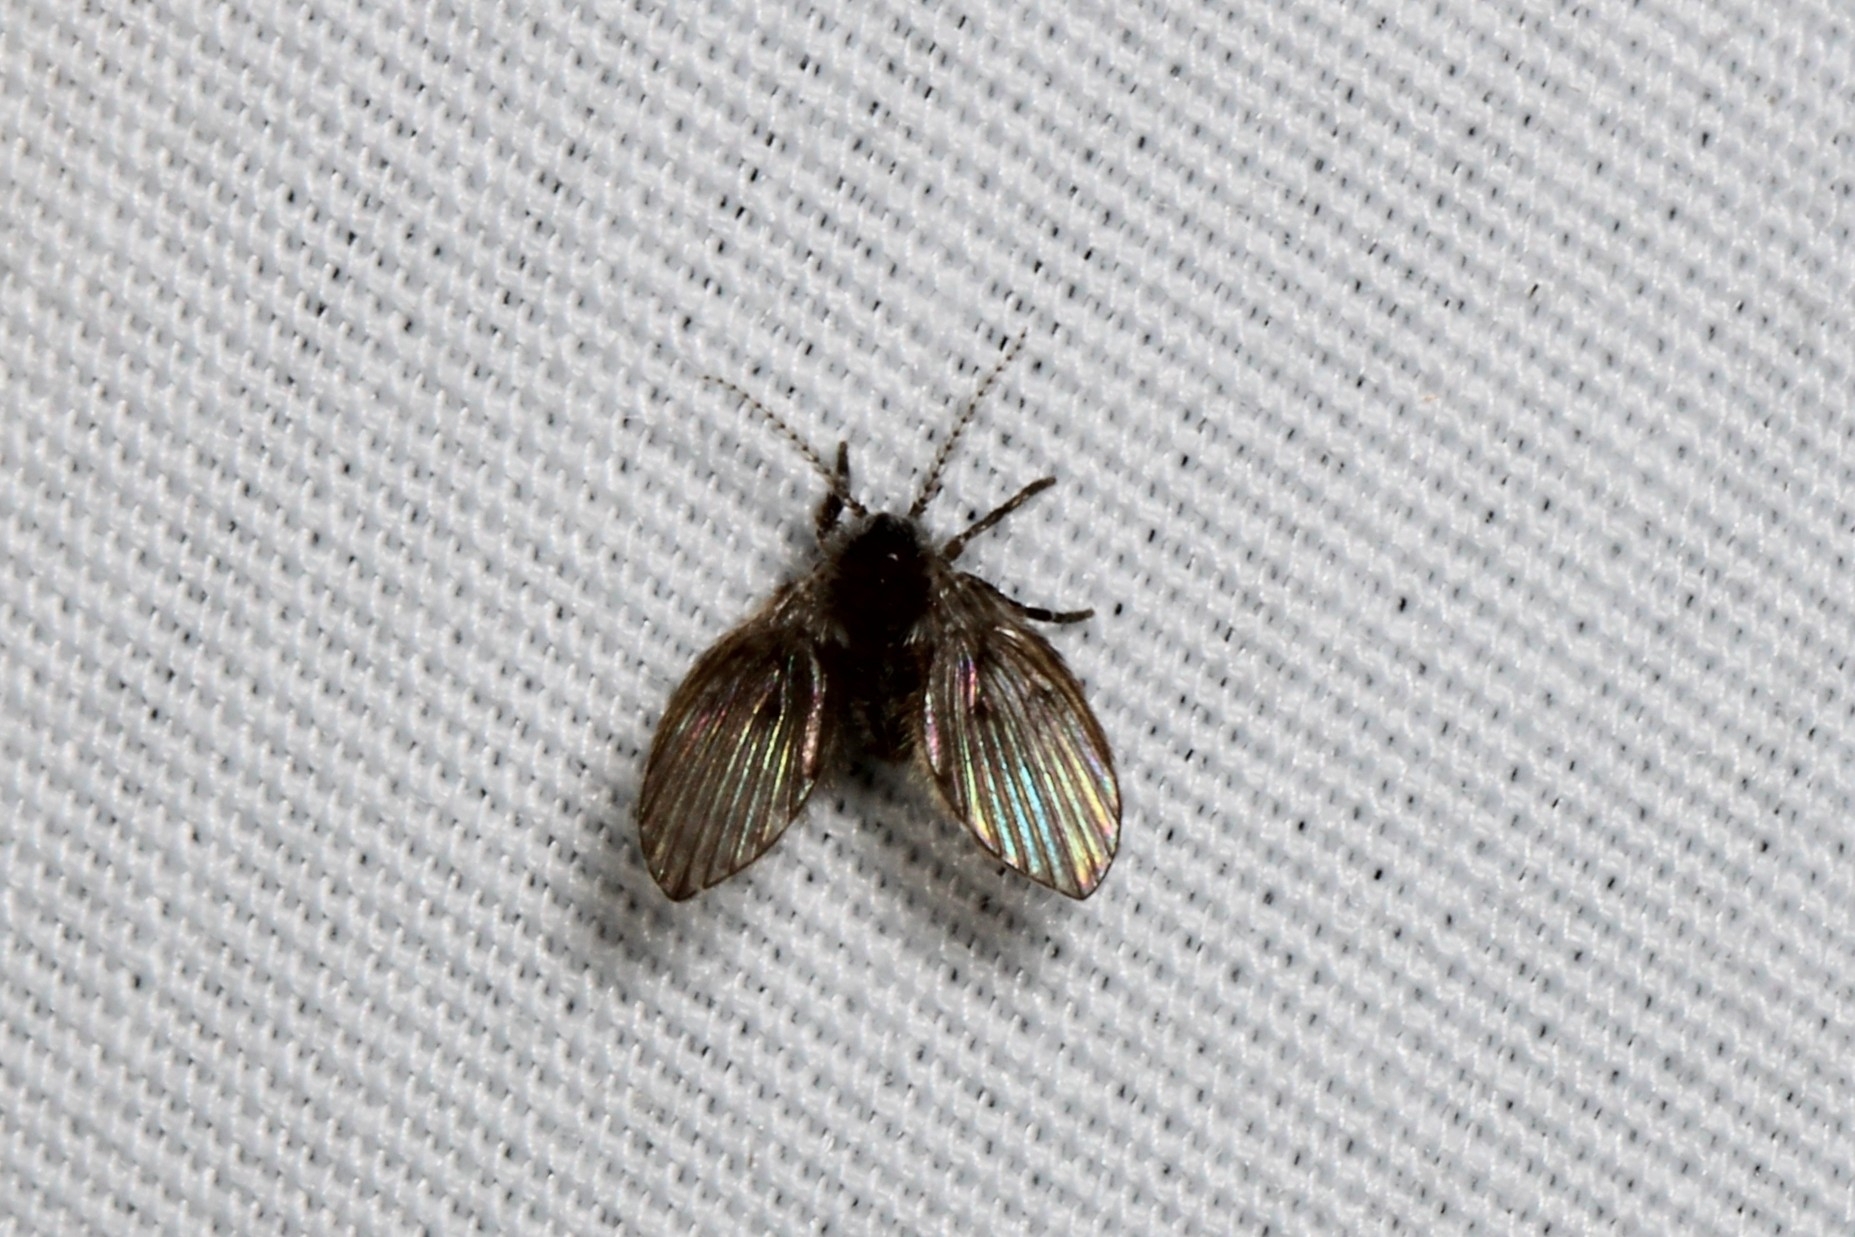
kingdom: Animalia
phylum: Arthropoda
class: Insecta
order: Diptera
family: Psychodidae
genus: Clogmia
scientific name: Clogmia albipunctatus
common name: White-spotted moth fly
